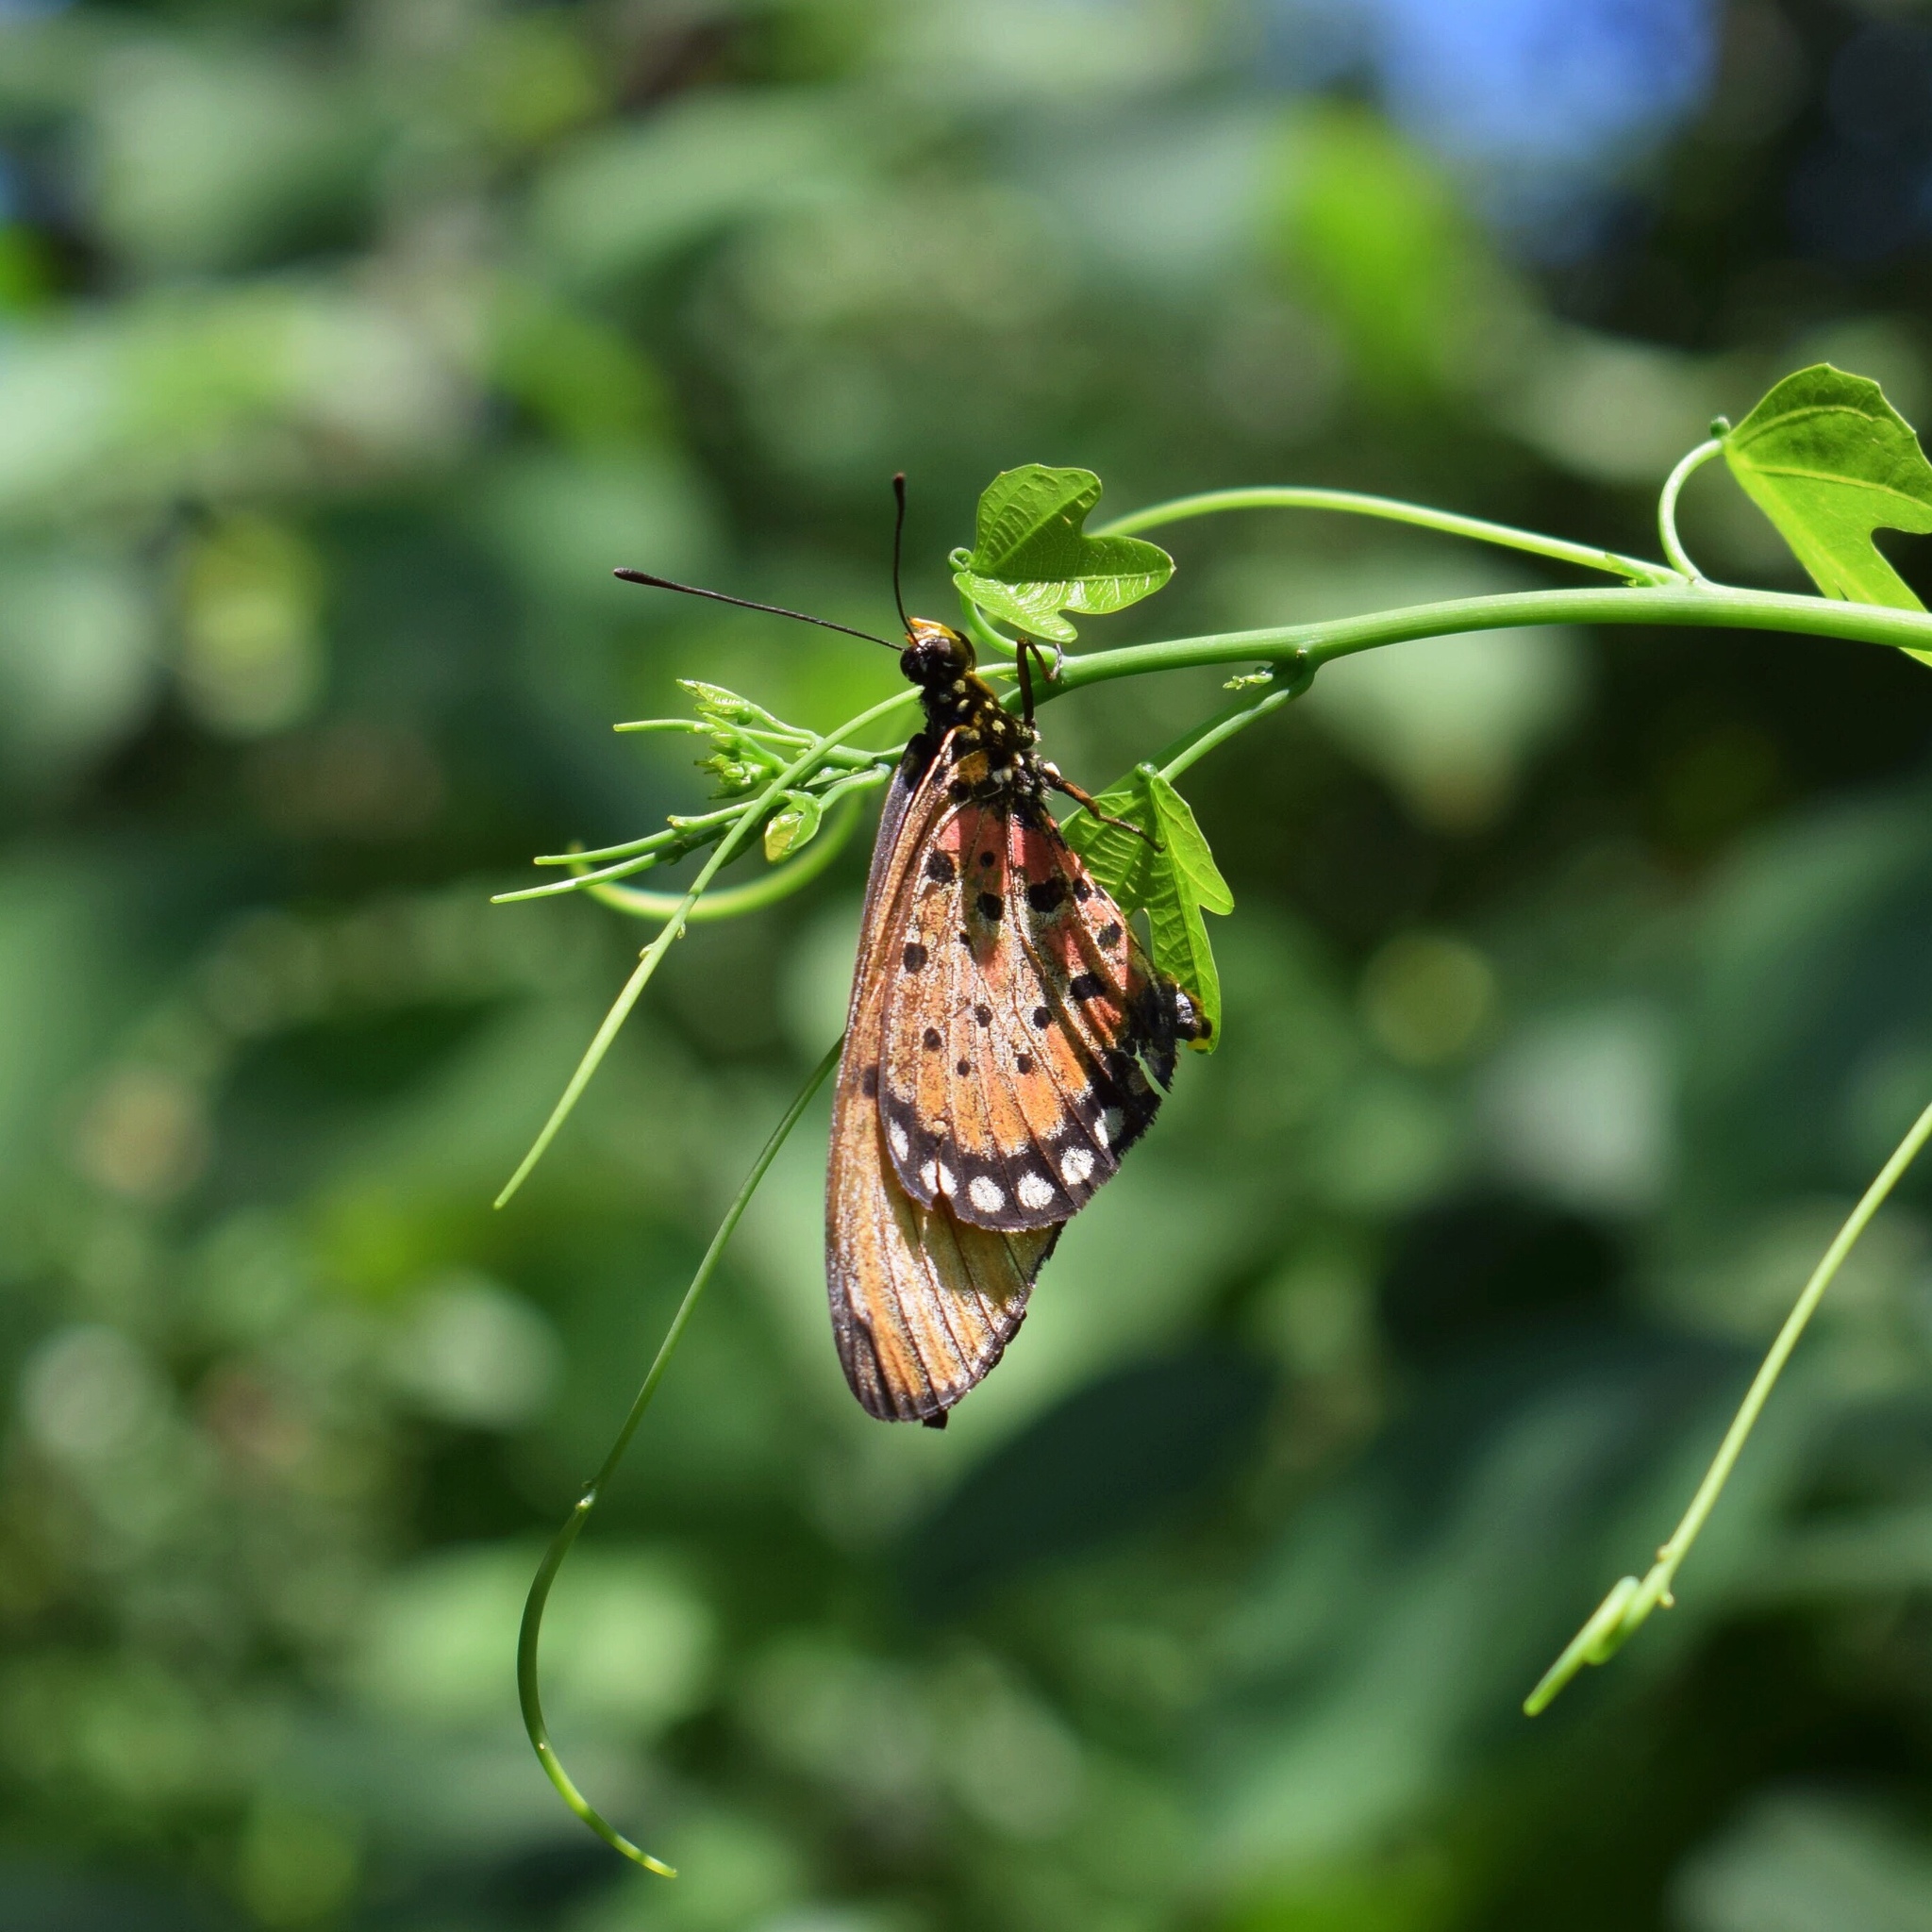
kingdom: Animalia
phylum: Arthropoda
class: Insecta
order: Lepidoptera
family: Nymphalidae
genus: Stephenia
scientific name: Stephenia
